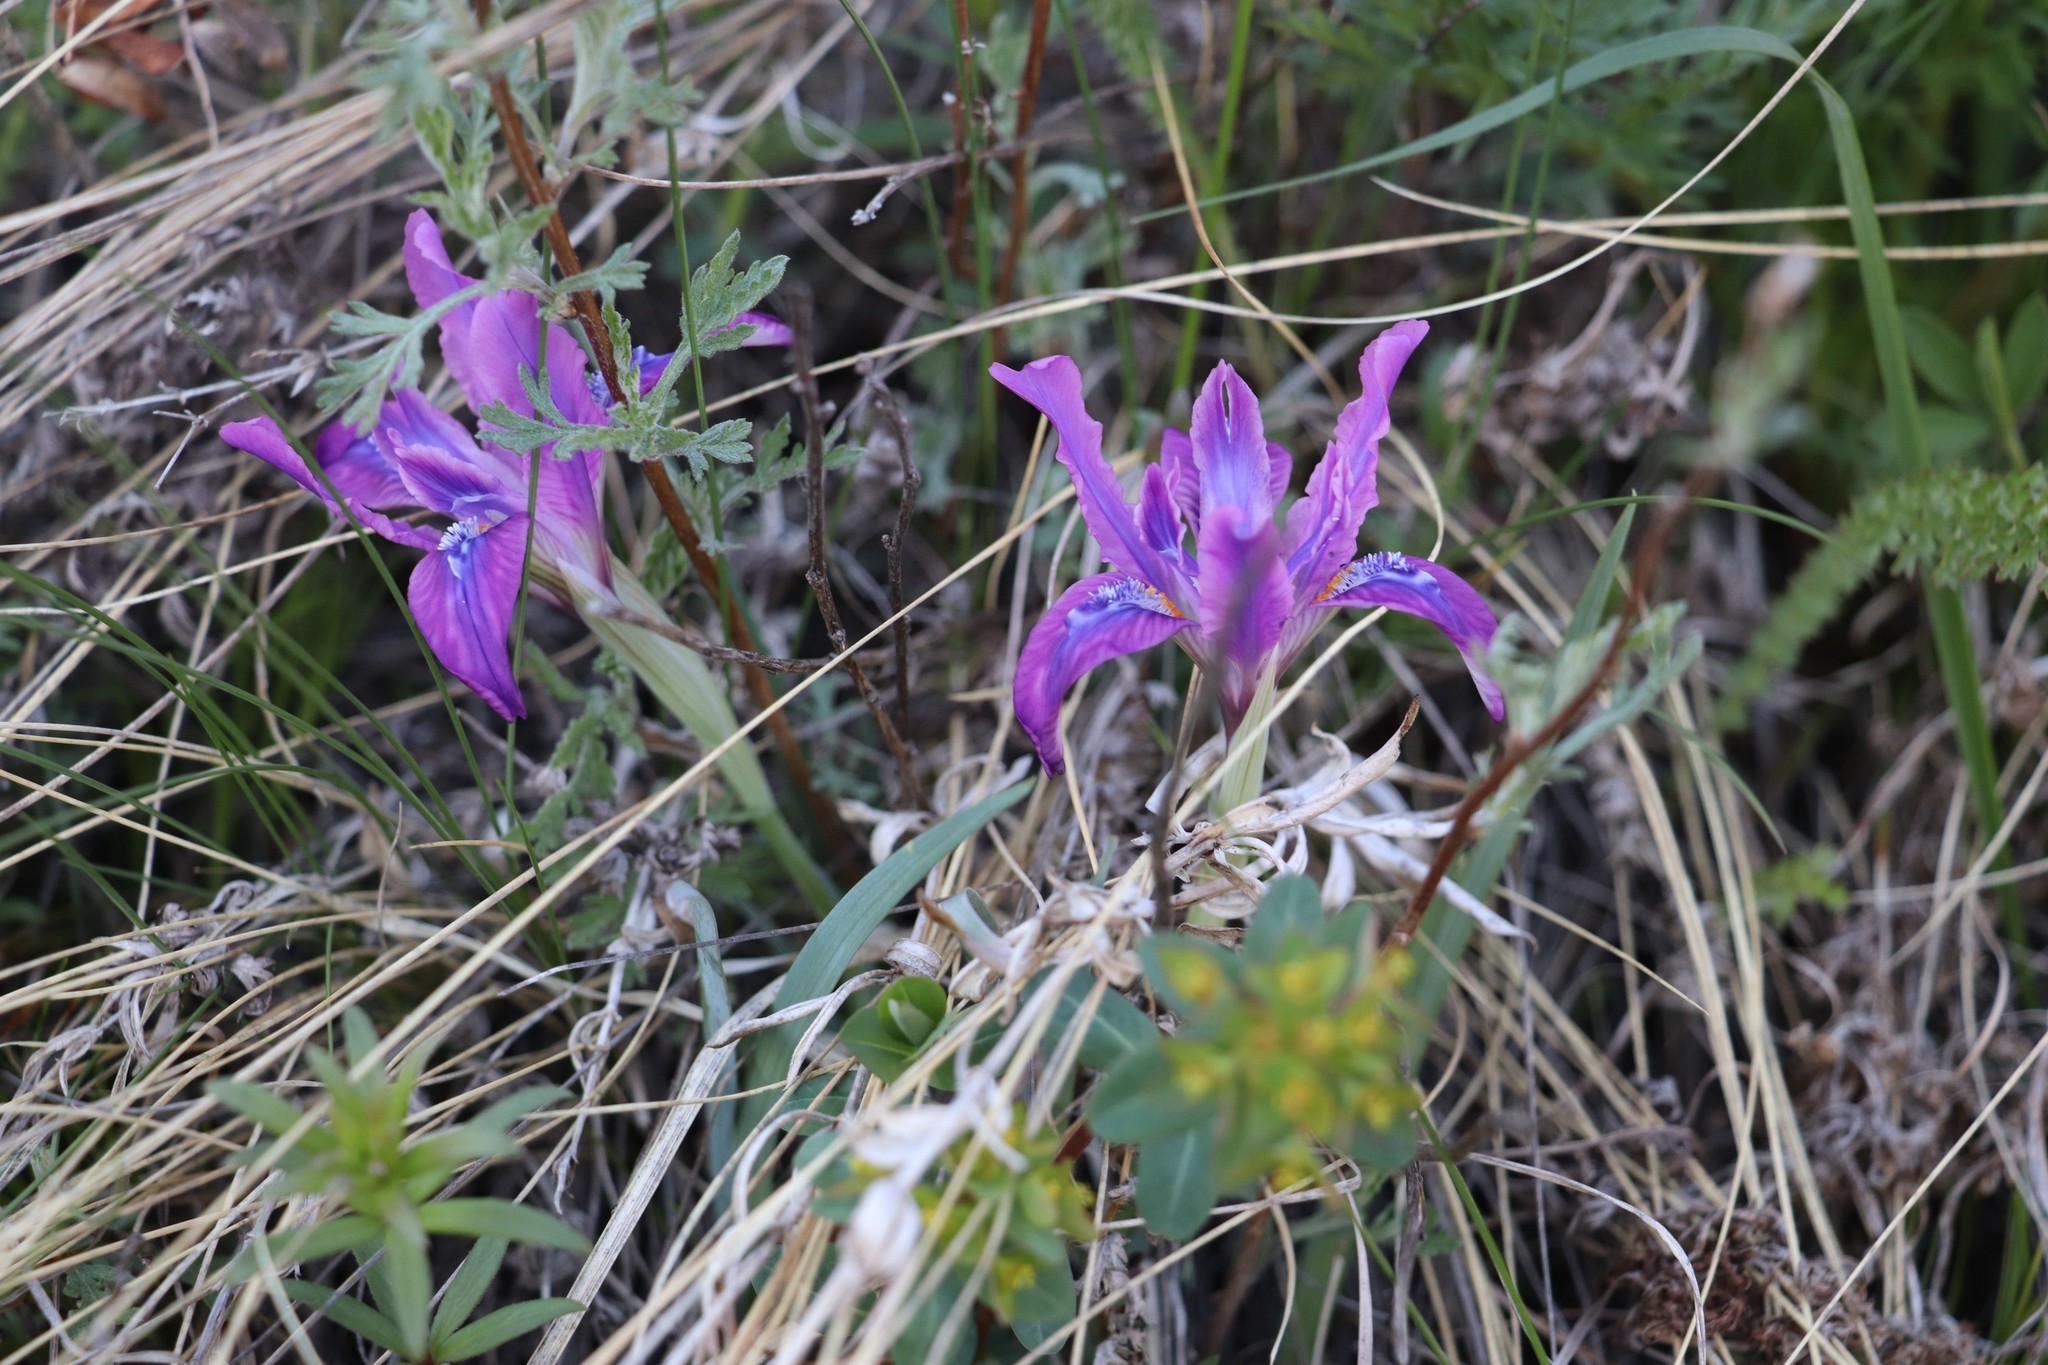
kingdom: Plantae
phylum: Tracheophyta
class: Liliopsida
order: Asparagales
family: Iridaceae
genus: Iris
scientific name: Iris tigridia
